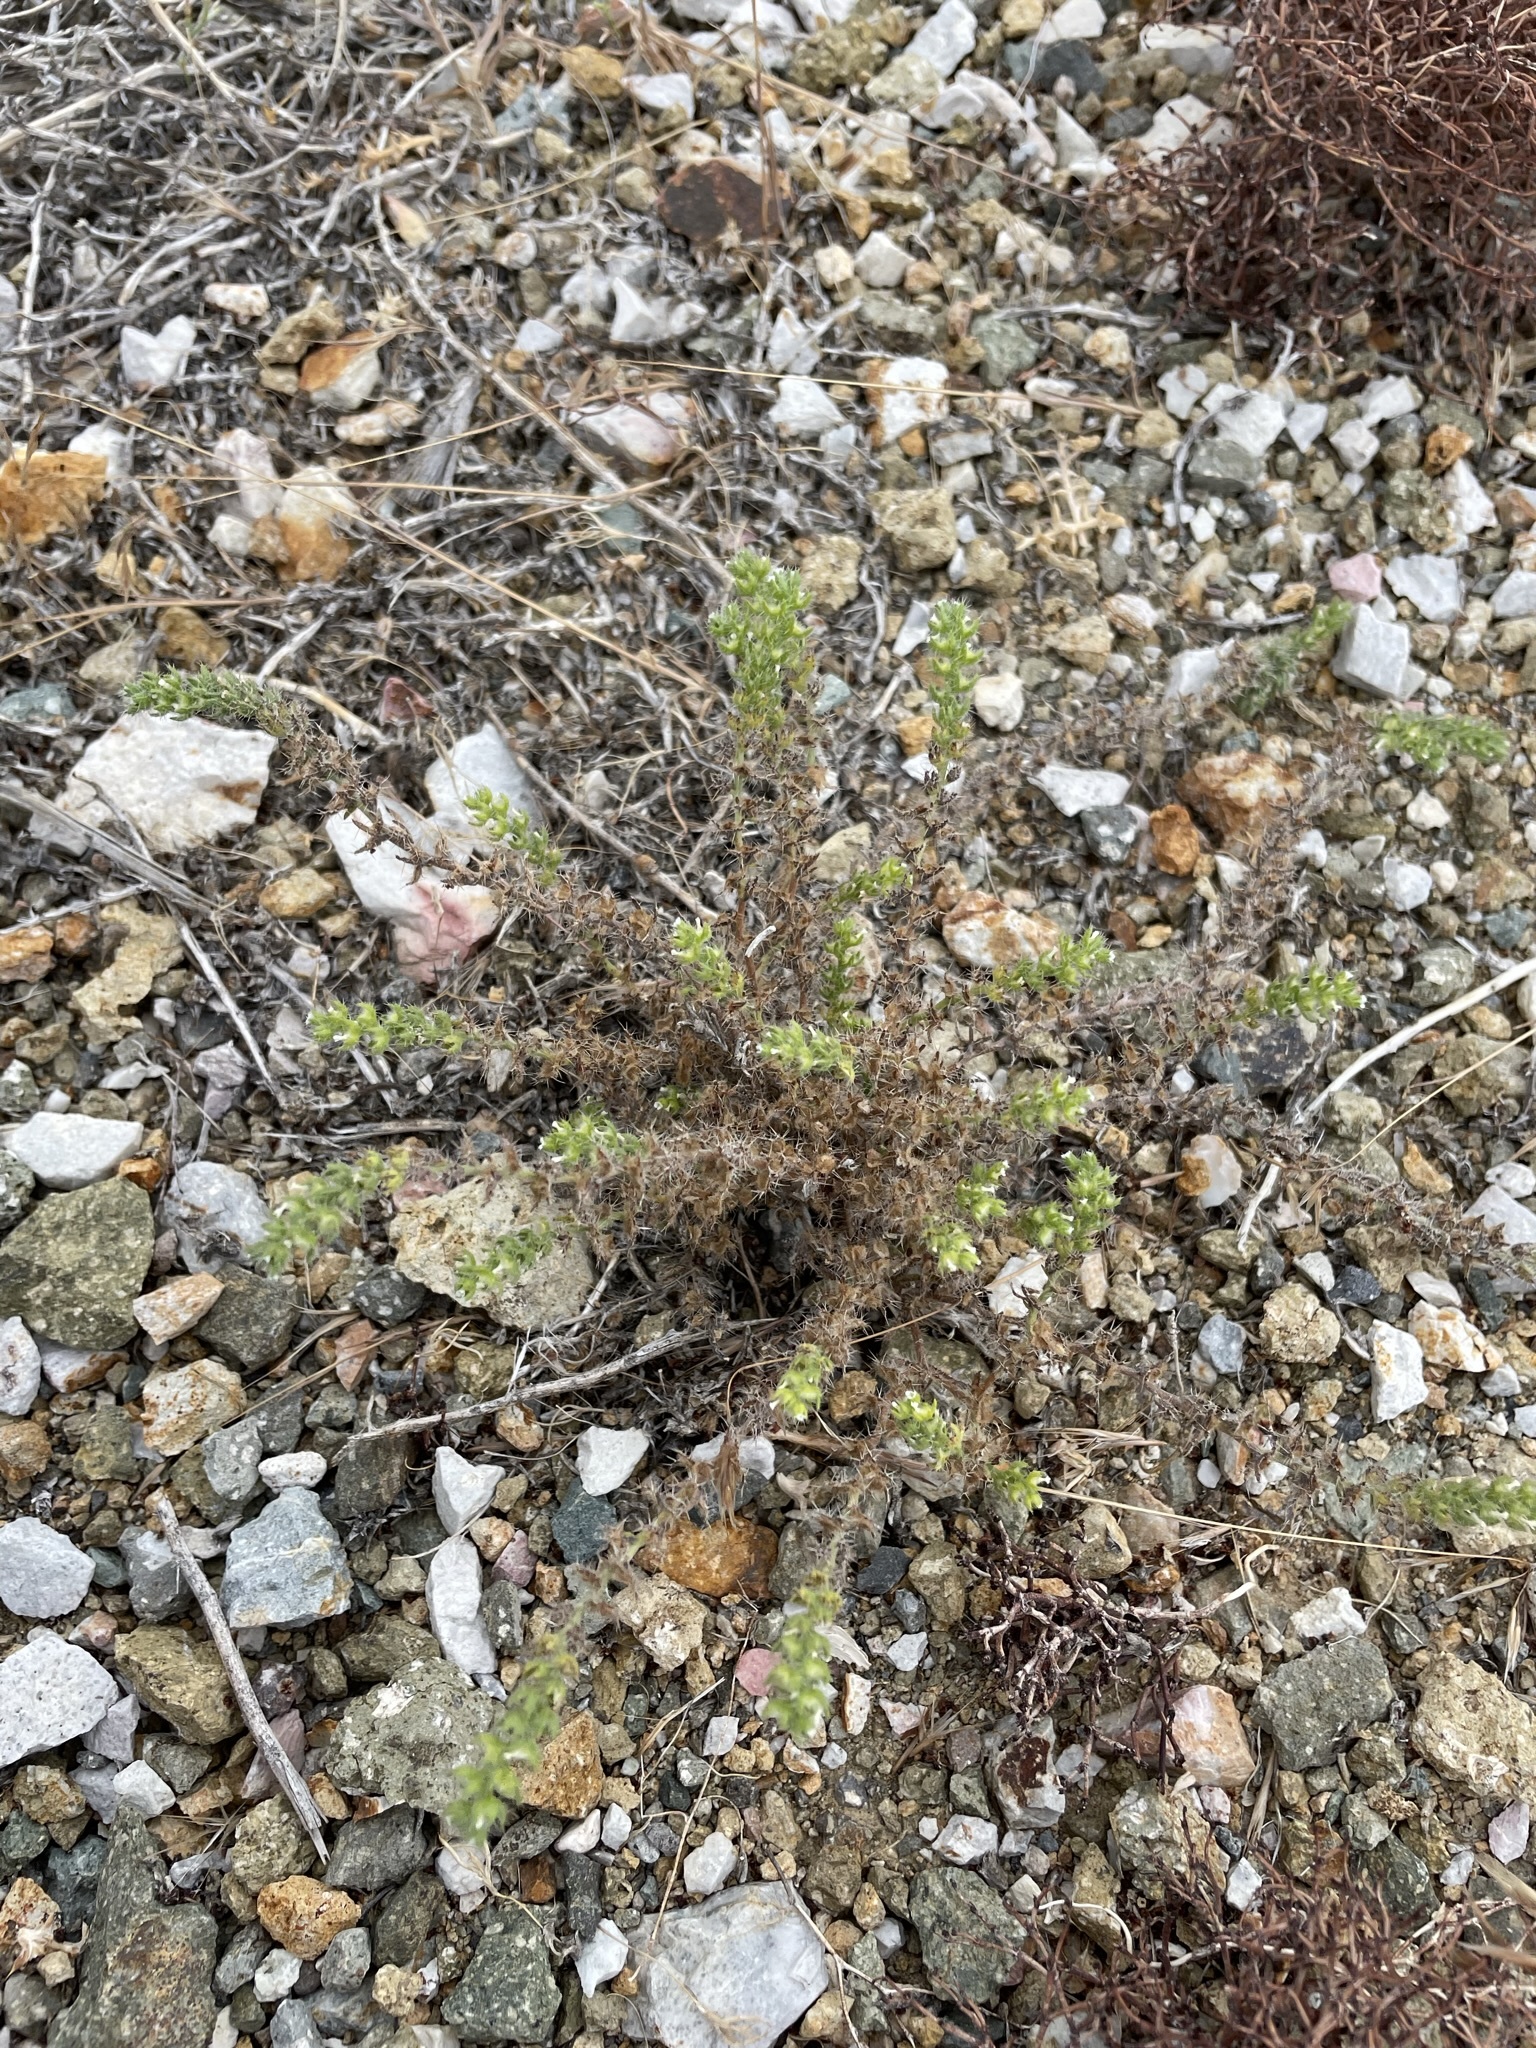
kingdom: Plantae
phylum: Tracheophyta
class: Magnoliopsida
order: Boraginales
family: Boraginaceae
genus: Pectocarya
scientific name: Pectocarya setosa
